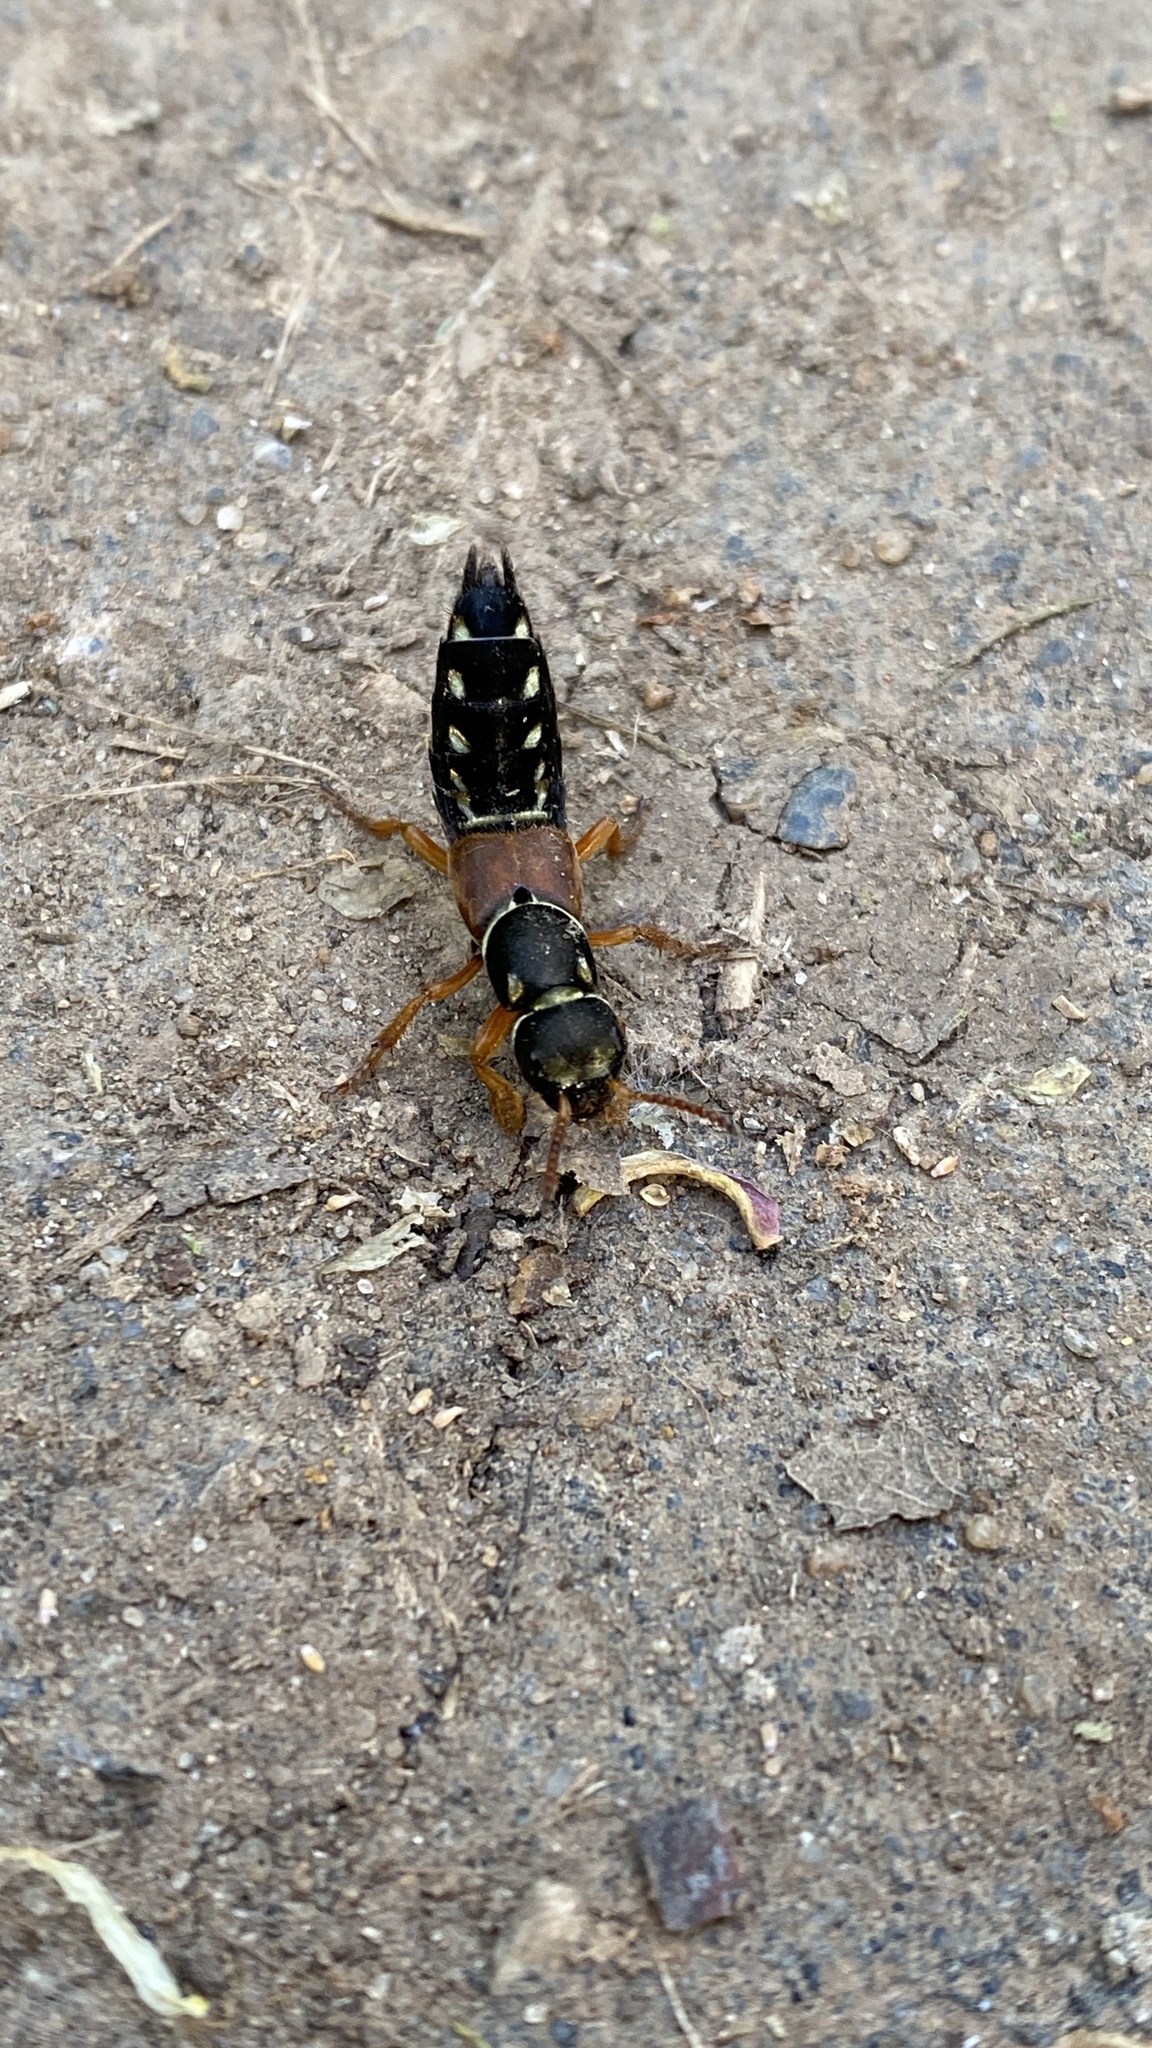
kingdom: Animalia
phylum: Arthropoda
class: Insecta
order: Coleoptera
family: Staphylinidae
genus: Staphylinus
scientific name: Staphylinus caesareus
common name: Staph beetle
